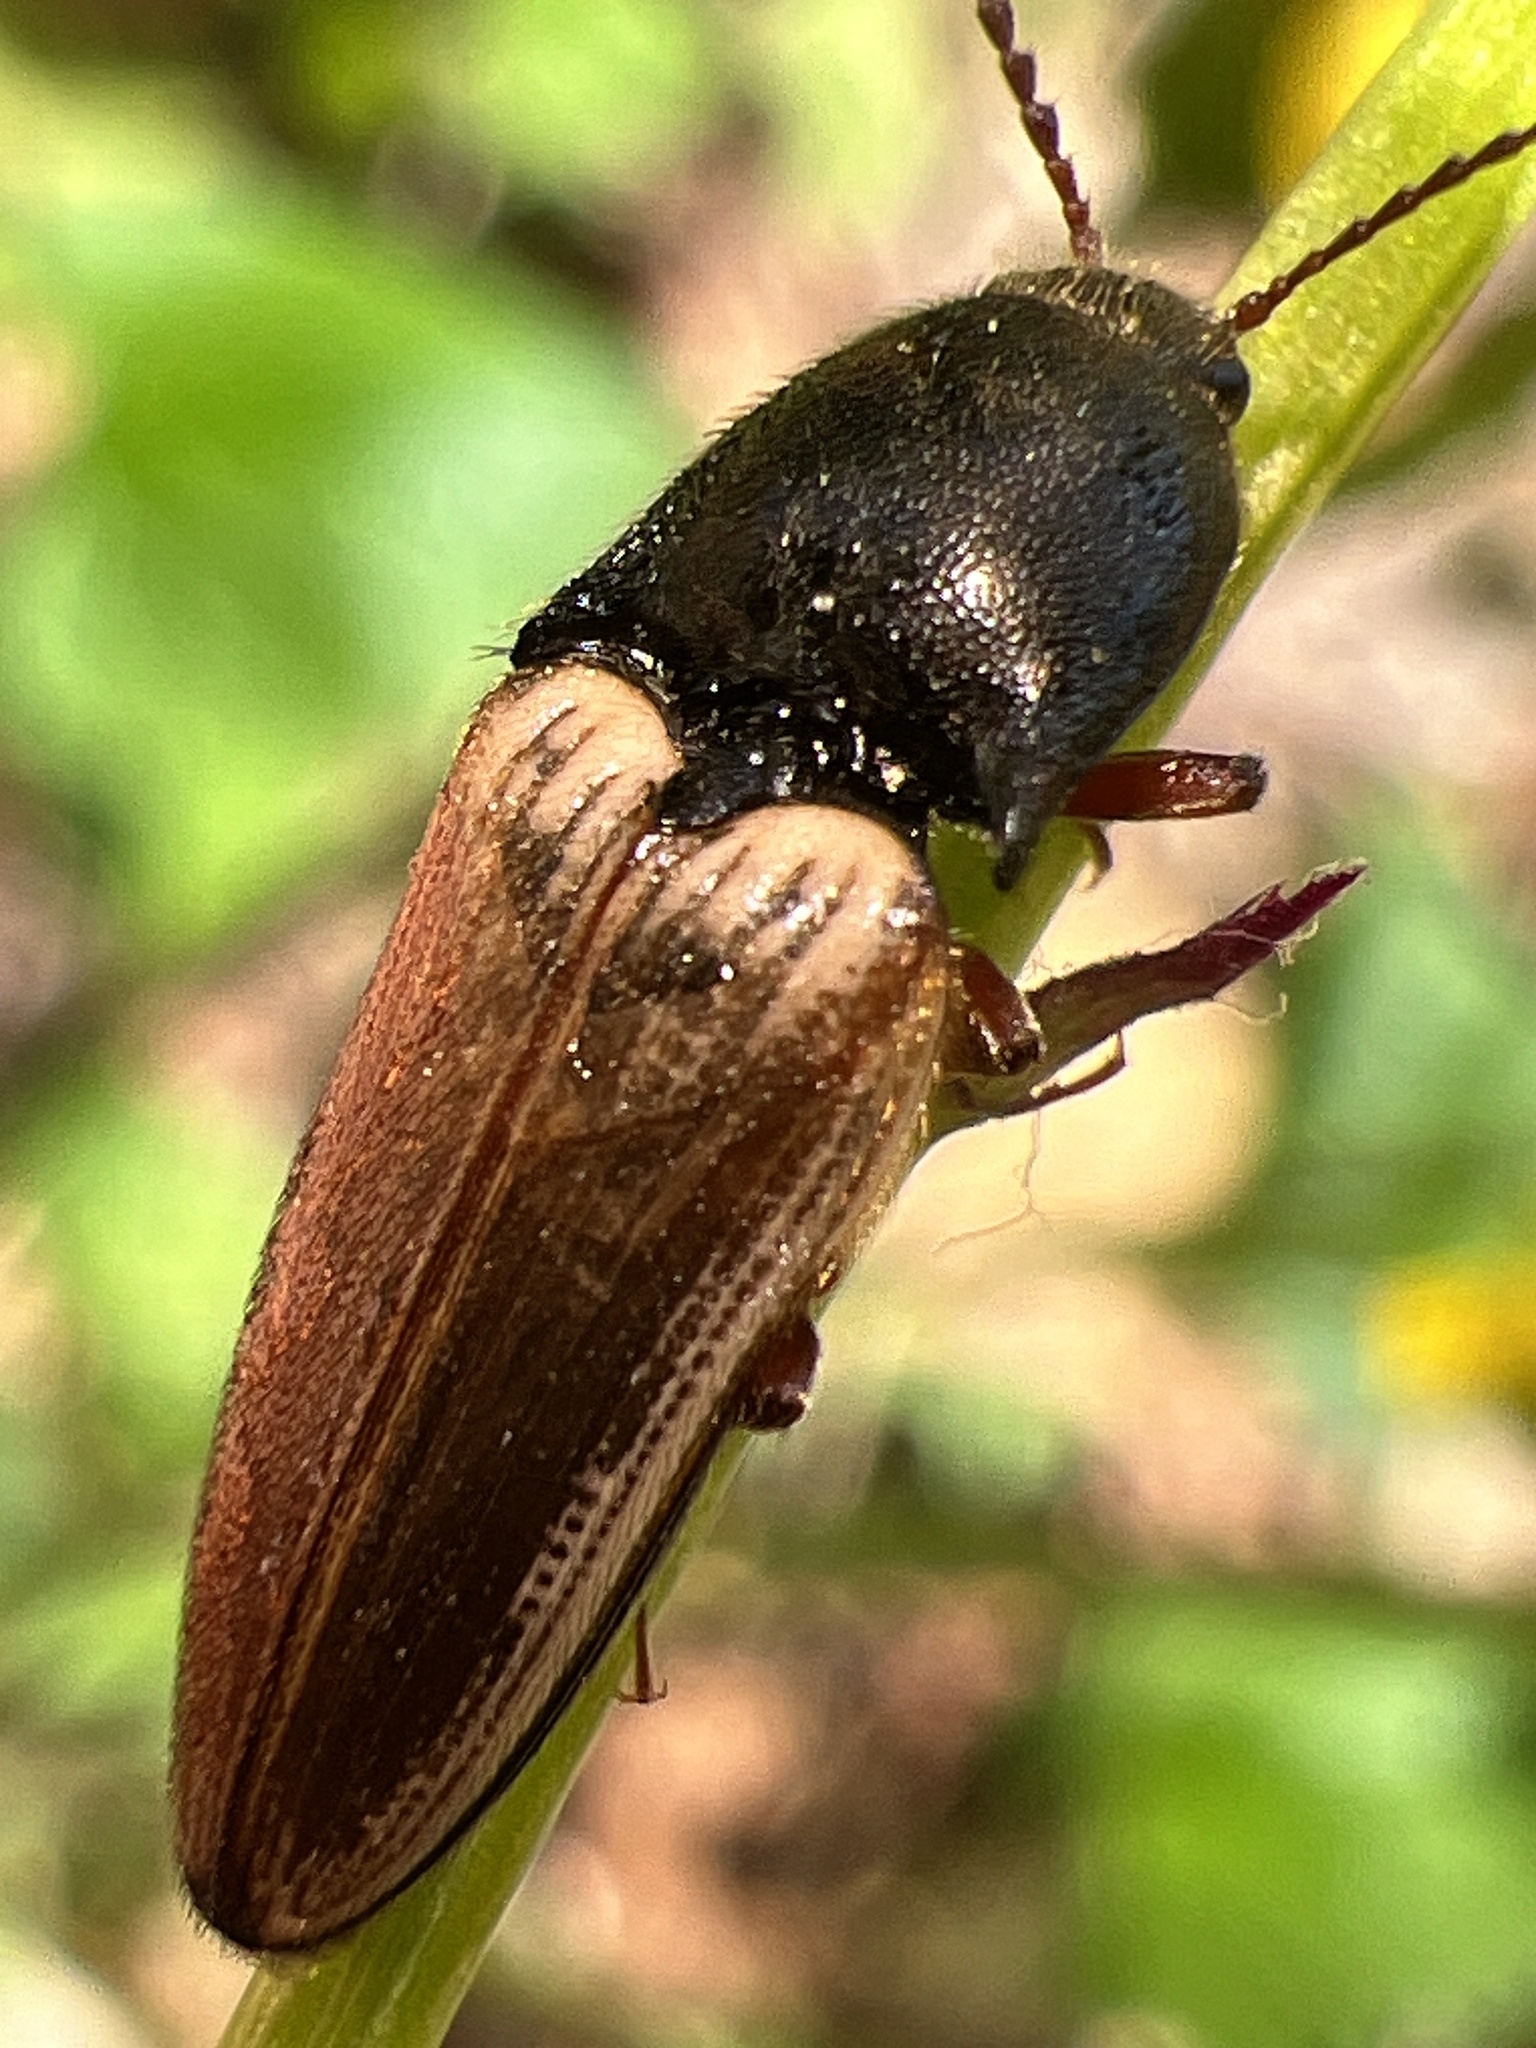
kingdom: Animalia
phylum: Arthropoda
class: Insecta
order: Coleoptera
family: Elateridae
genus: Ampedus
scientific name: Ampedus nigricollis
